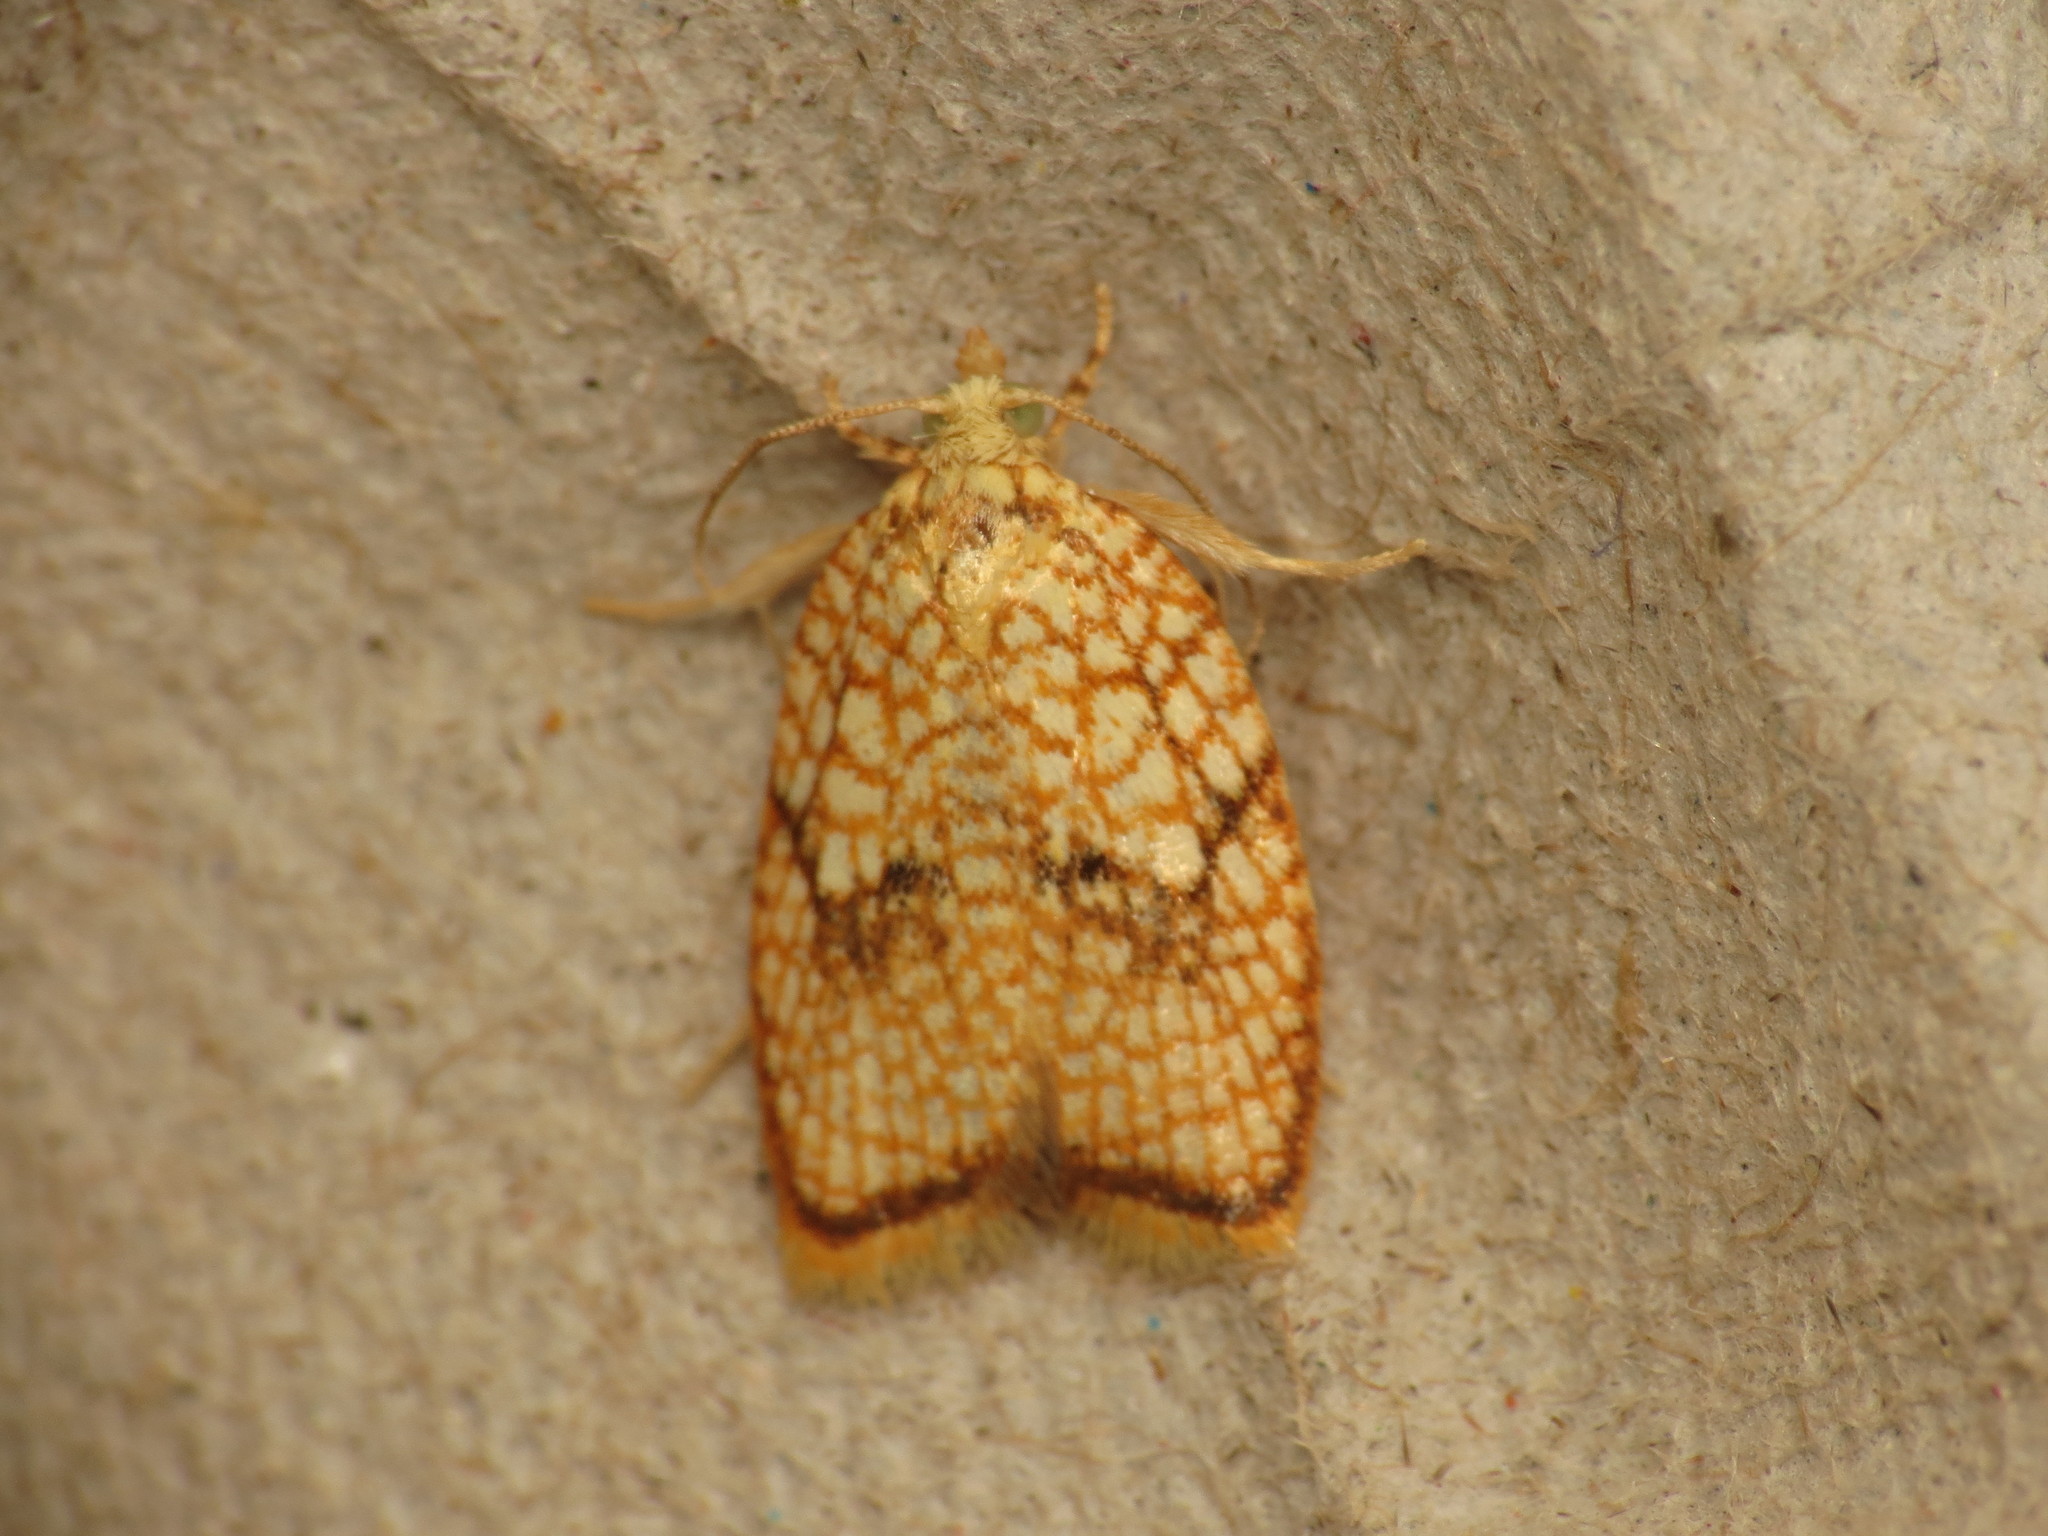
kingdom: Animalia
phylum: Arthropoda
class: Insecta
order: Lepidoptera
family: Tortricidae
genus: Acleris
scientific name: Acleris forsskaleana
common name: Maple button
